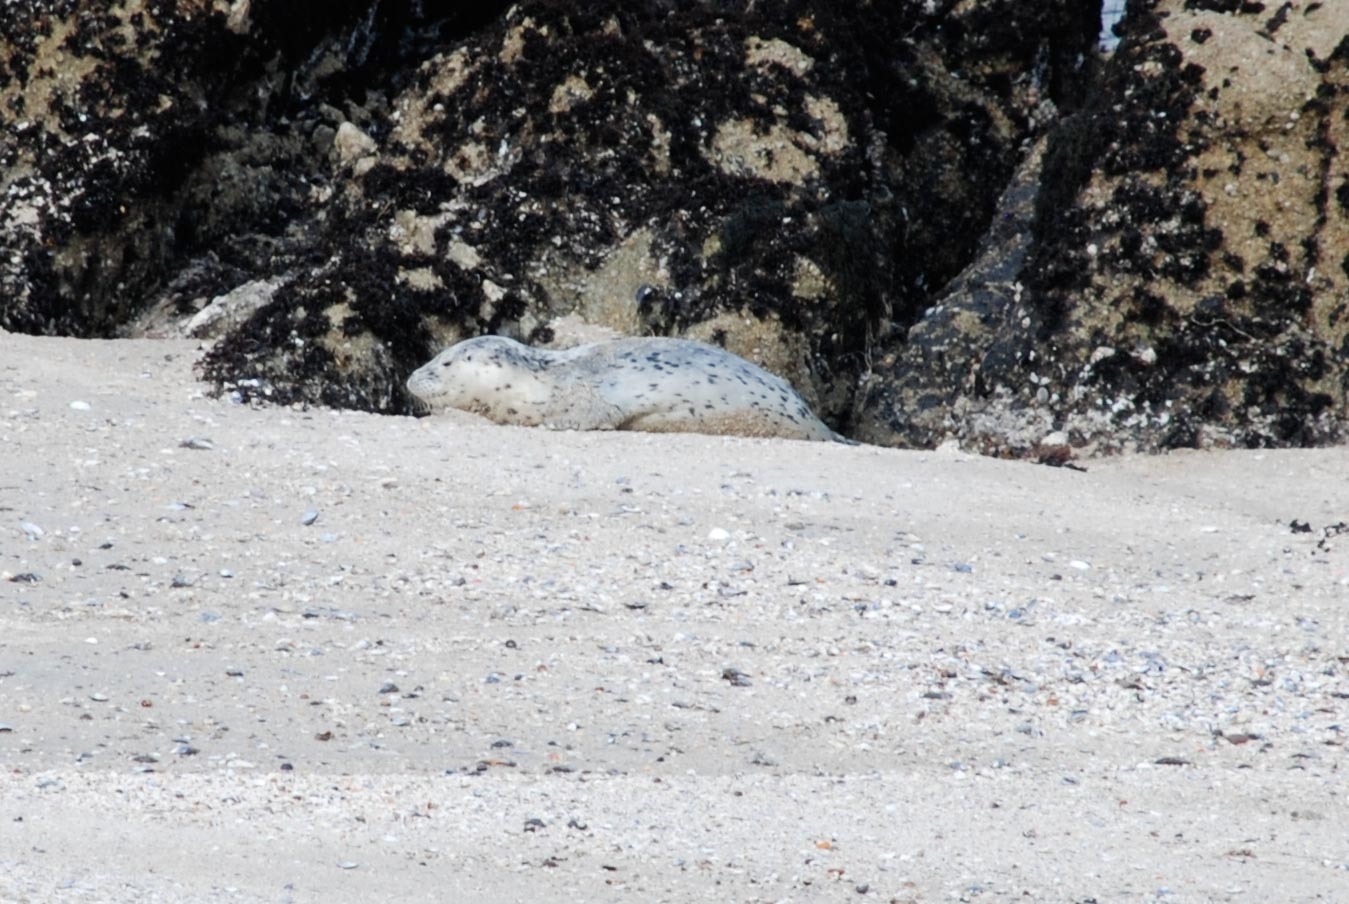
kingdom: Animalia
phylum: Chordata
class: Mammalia
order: Carnivora
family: Phocidae
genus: Phoca
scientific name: Phoca vitulina
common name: Harbor seal
